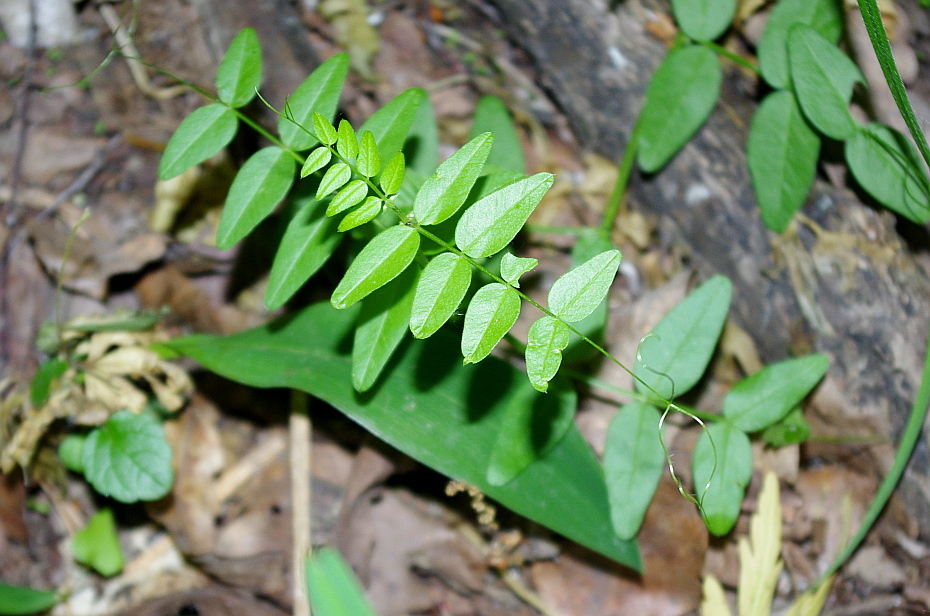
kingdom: Plantae
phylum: Tracheophyta
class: Magnoliopsida
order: Fabales
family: Fabaceae
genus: Vicia
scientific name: Vicia sepium
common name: Bush vetch
